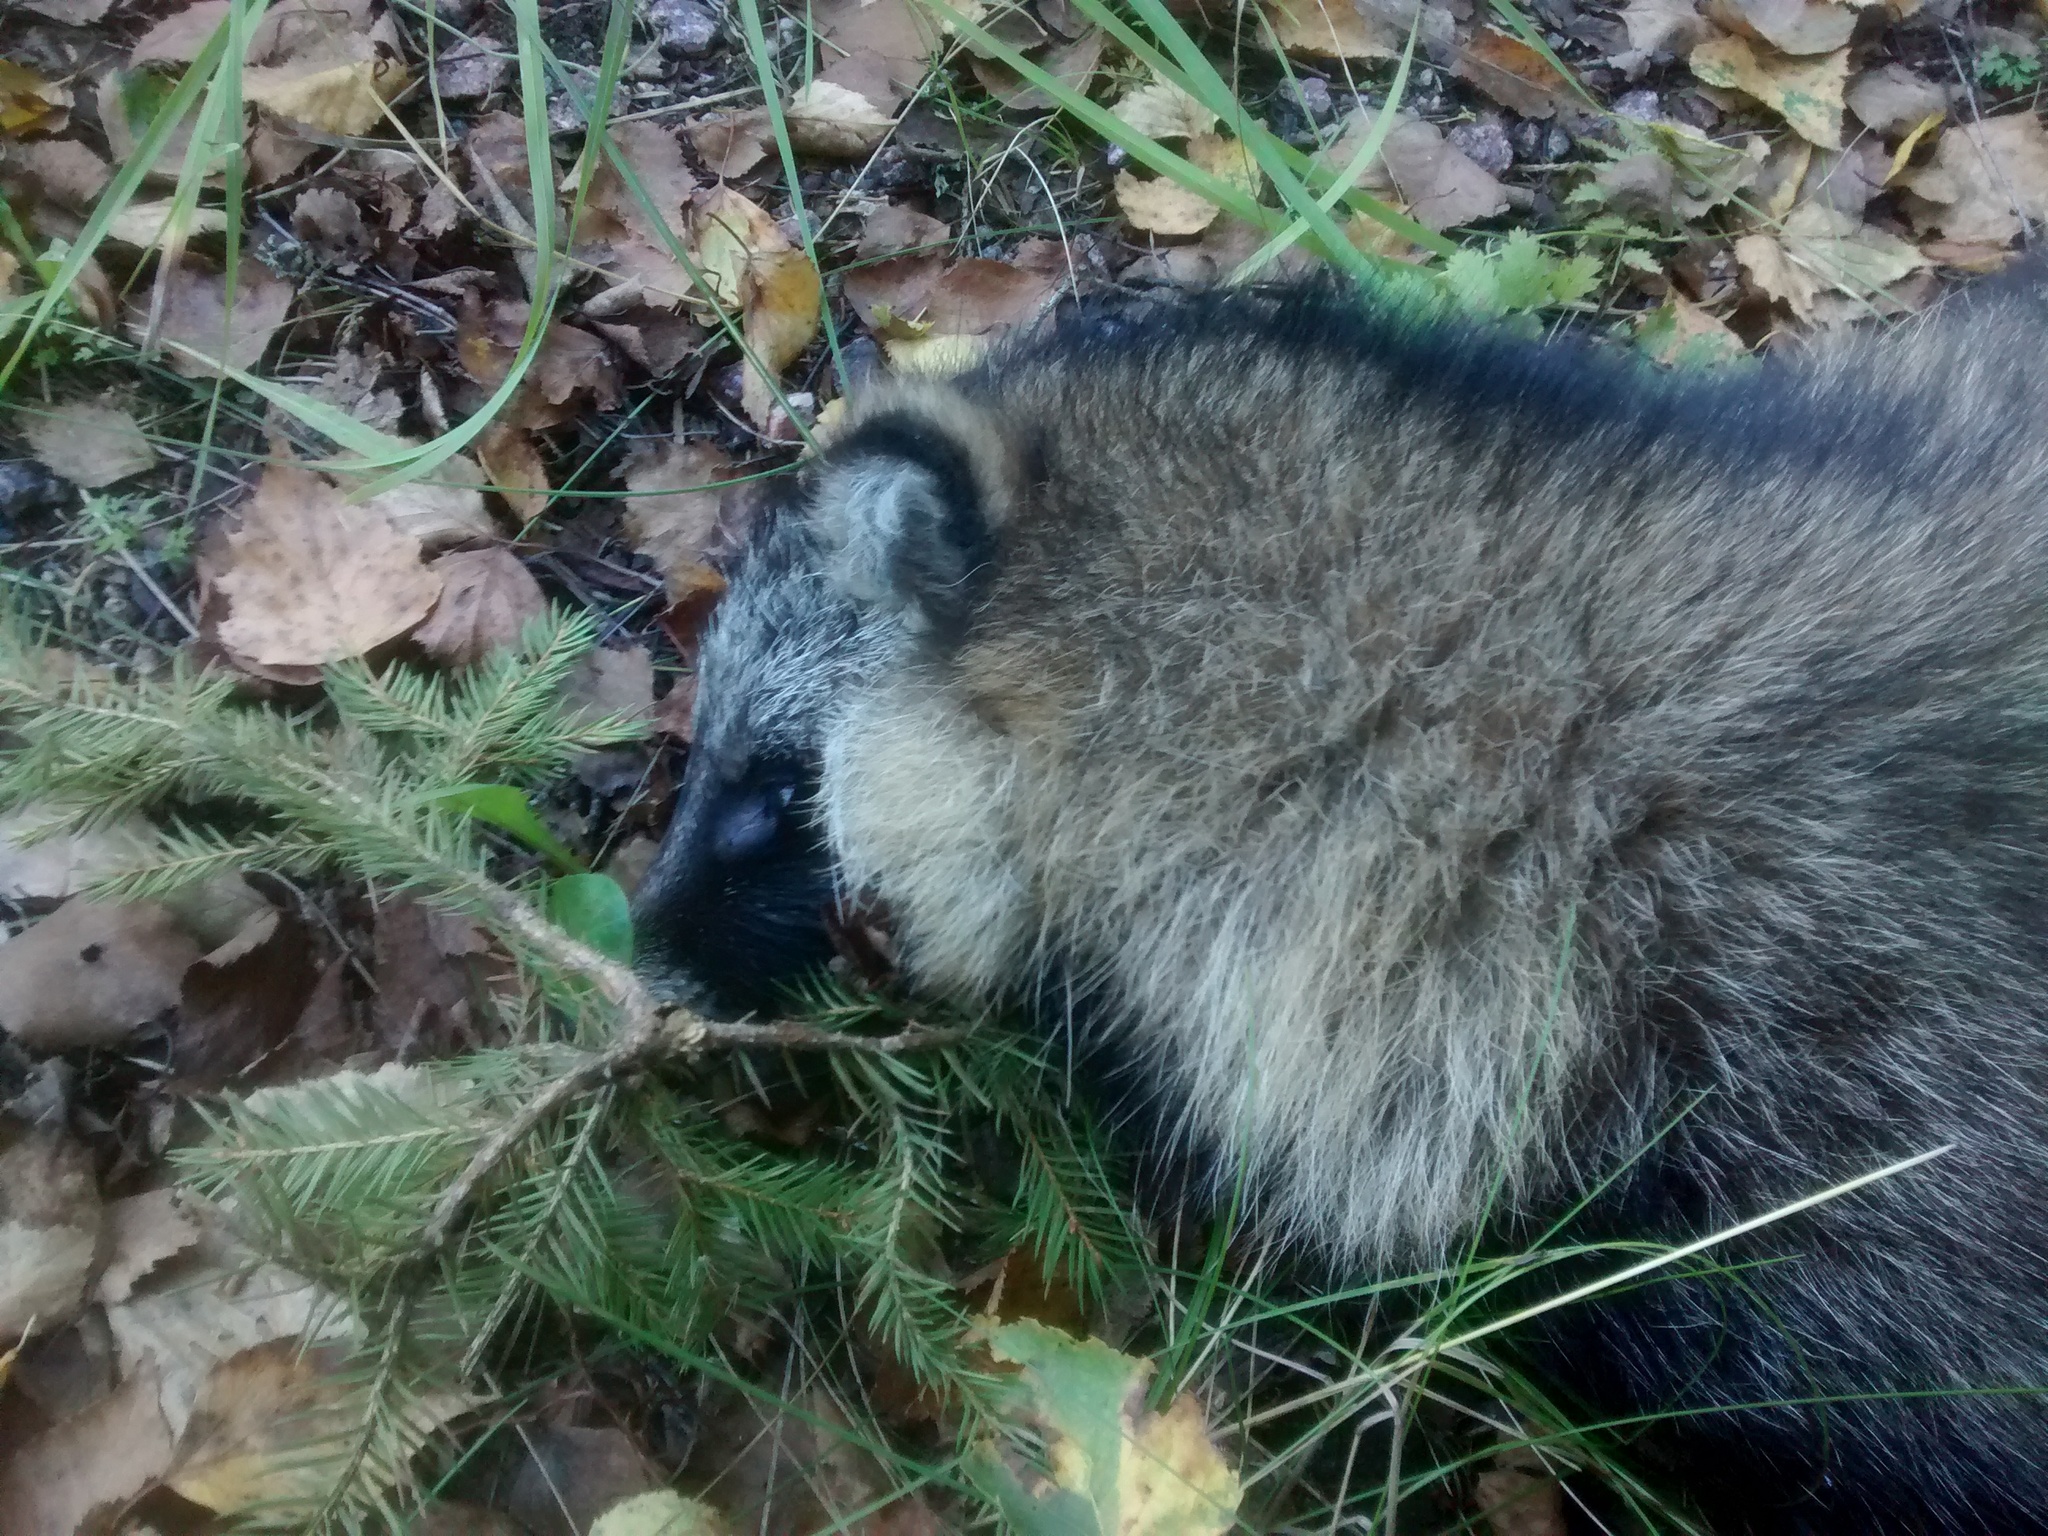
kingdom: Animalia
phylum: Chordata
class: Mammalia
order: Carnivora
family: Canidae
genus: Nyctereutes
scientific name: Nyctereutes procyonoides
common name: Raccoon dog
